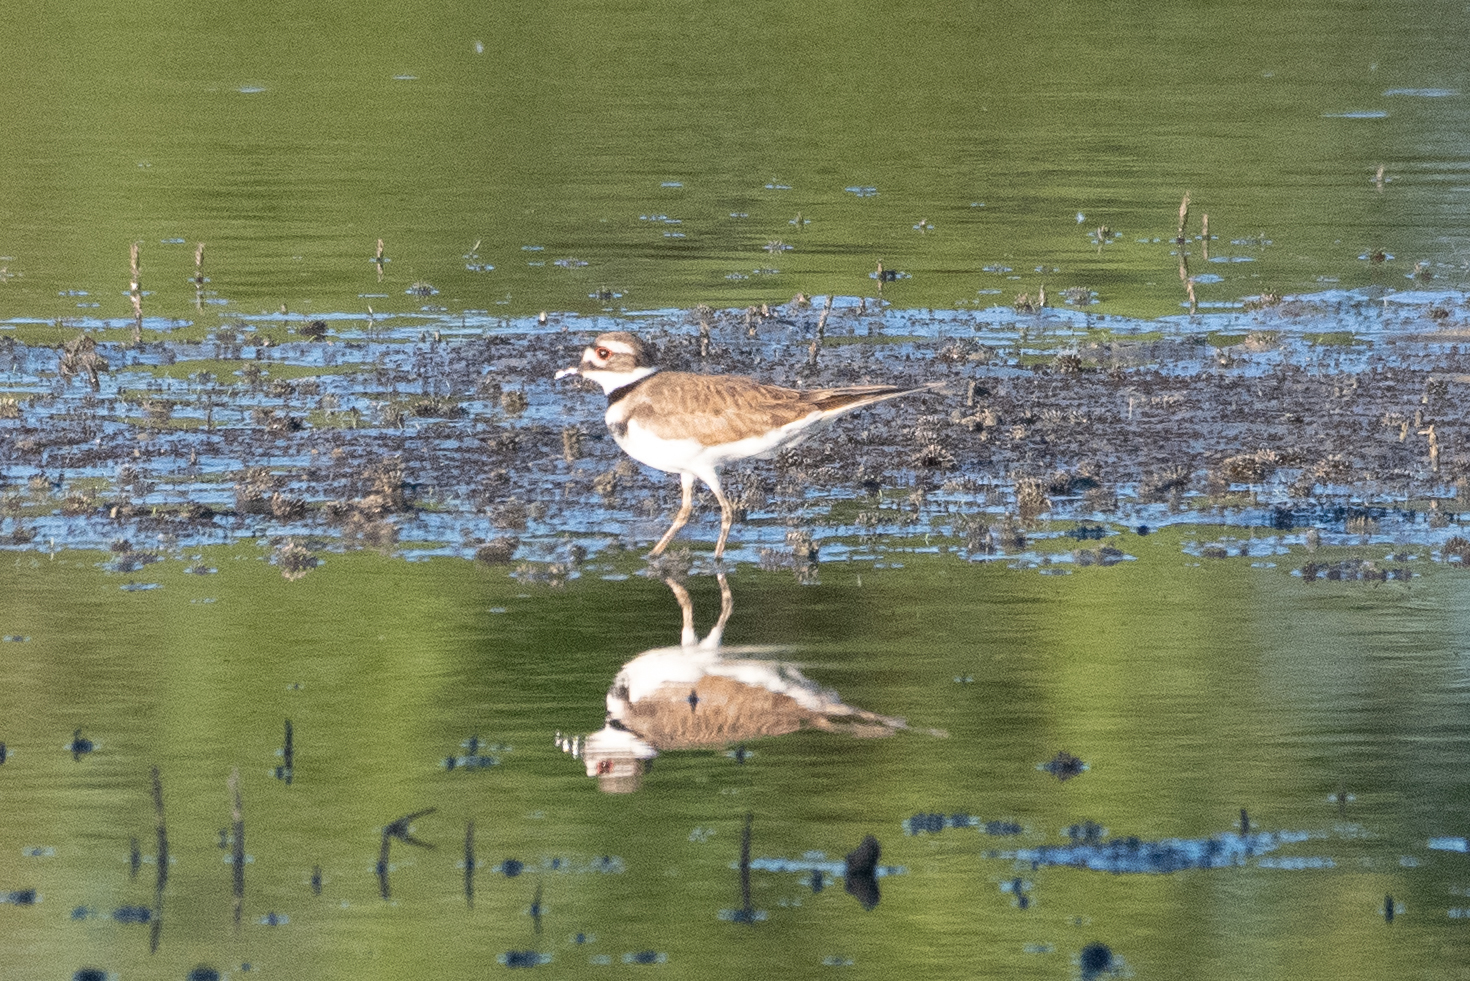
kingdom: Animalia
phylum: Chordata
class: Aves
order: Charadriiformes
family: Charadriidae
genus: Charadrius
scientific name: Charadrius vociferus
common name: Killdeer
